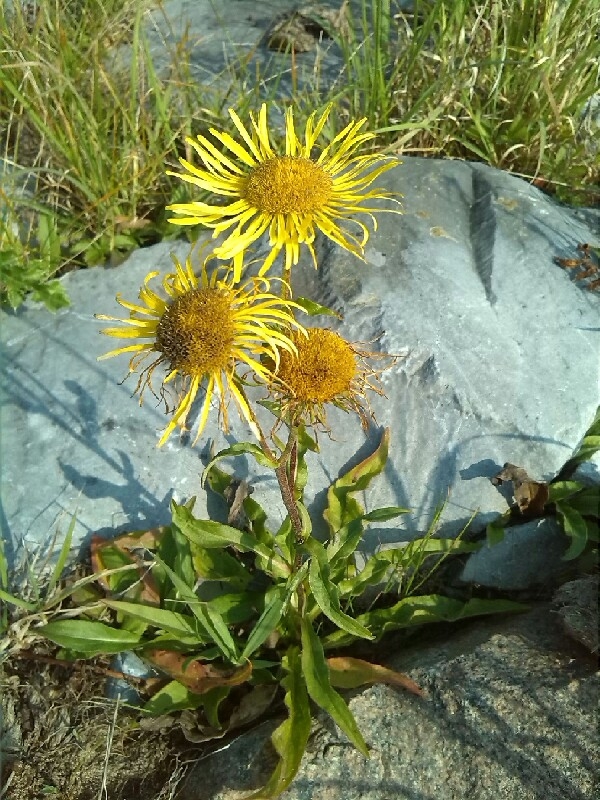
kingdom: Plantae
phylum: Tracheophyta
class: Magnoliopsida
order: Asterales
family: Asteraceae
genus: Pentanema
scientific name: Pentanema britannicum
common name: British elecampane
